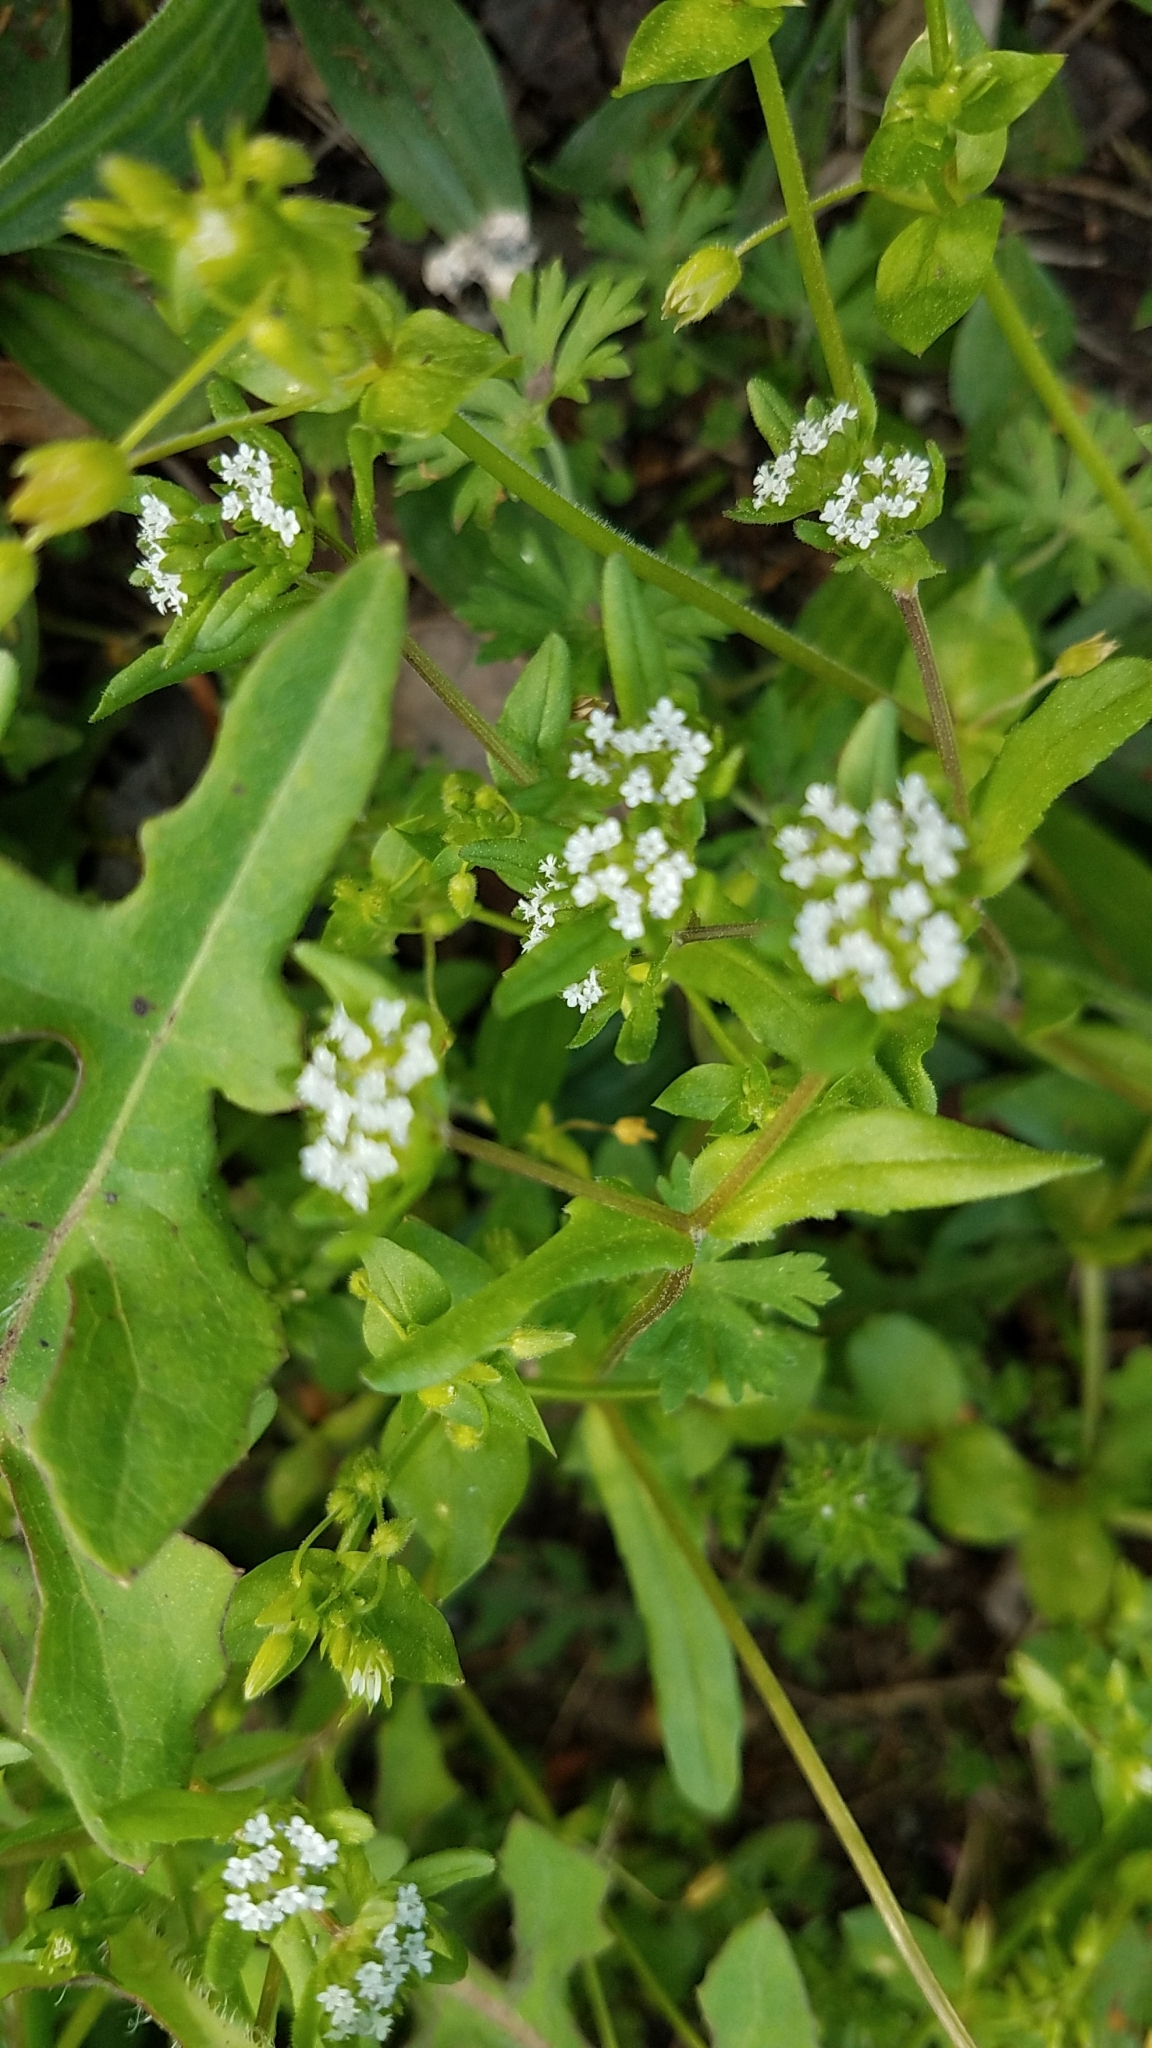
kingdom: Plantae
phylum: Tracheophyta
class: Magnoliopsida
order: Dipsacales
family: Caprifoliaceae
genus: Valerianella
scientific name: Valerianella locusta
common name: Common cornsalad
